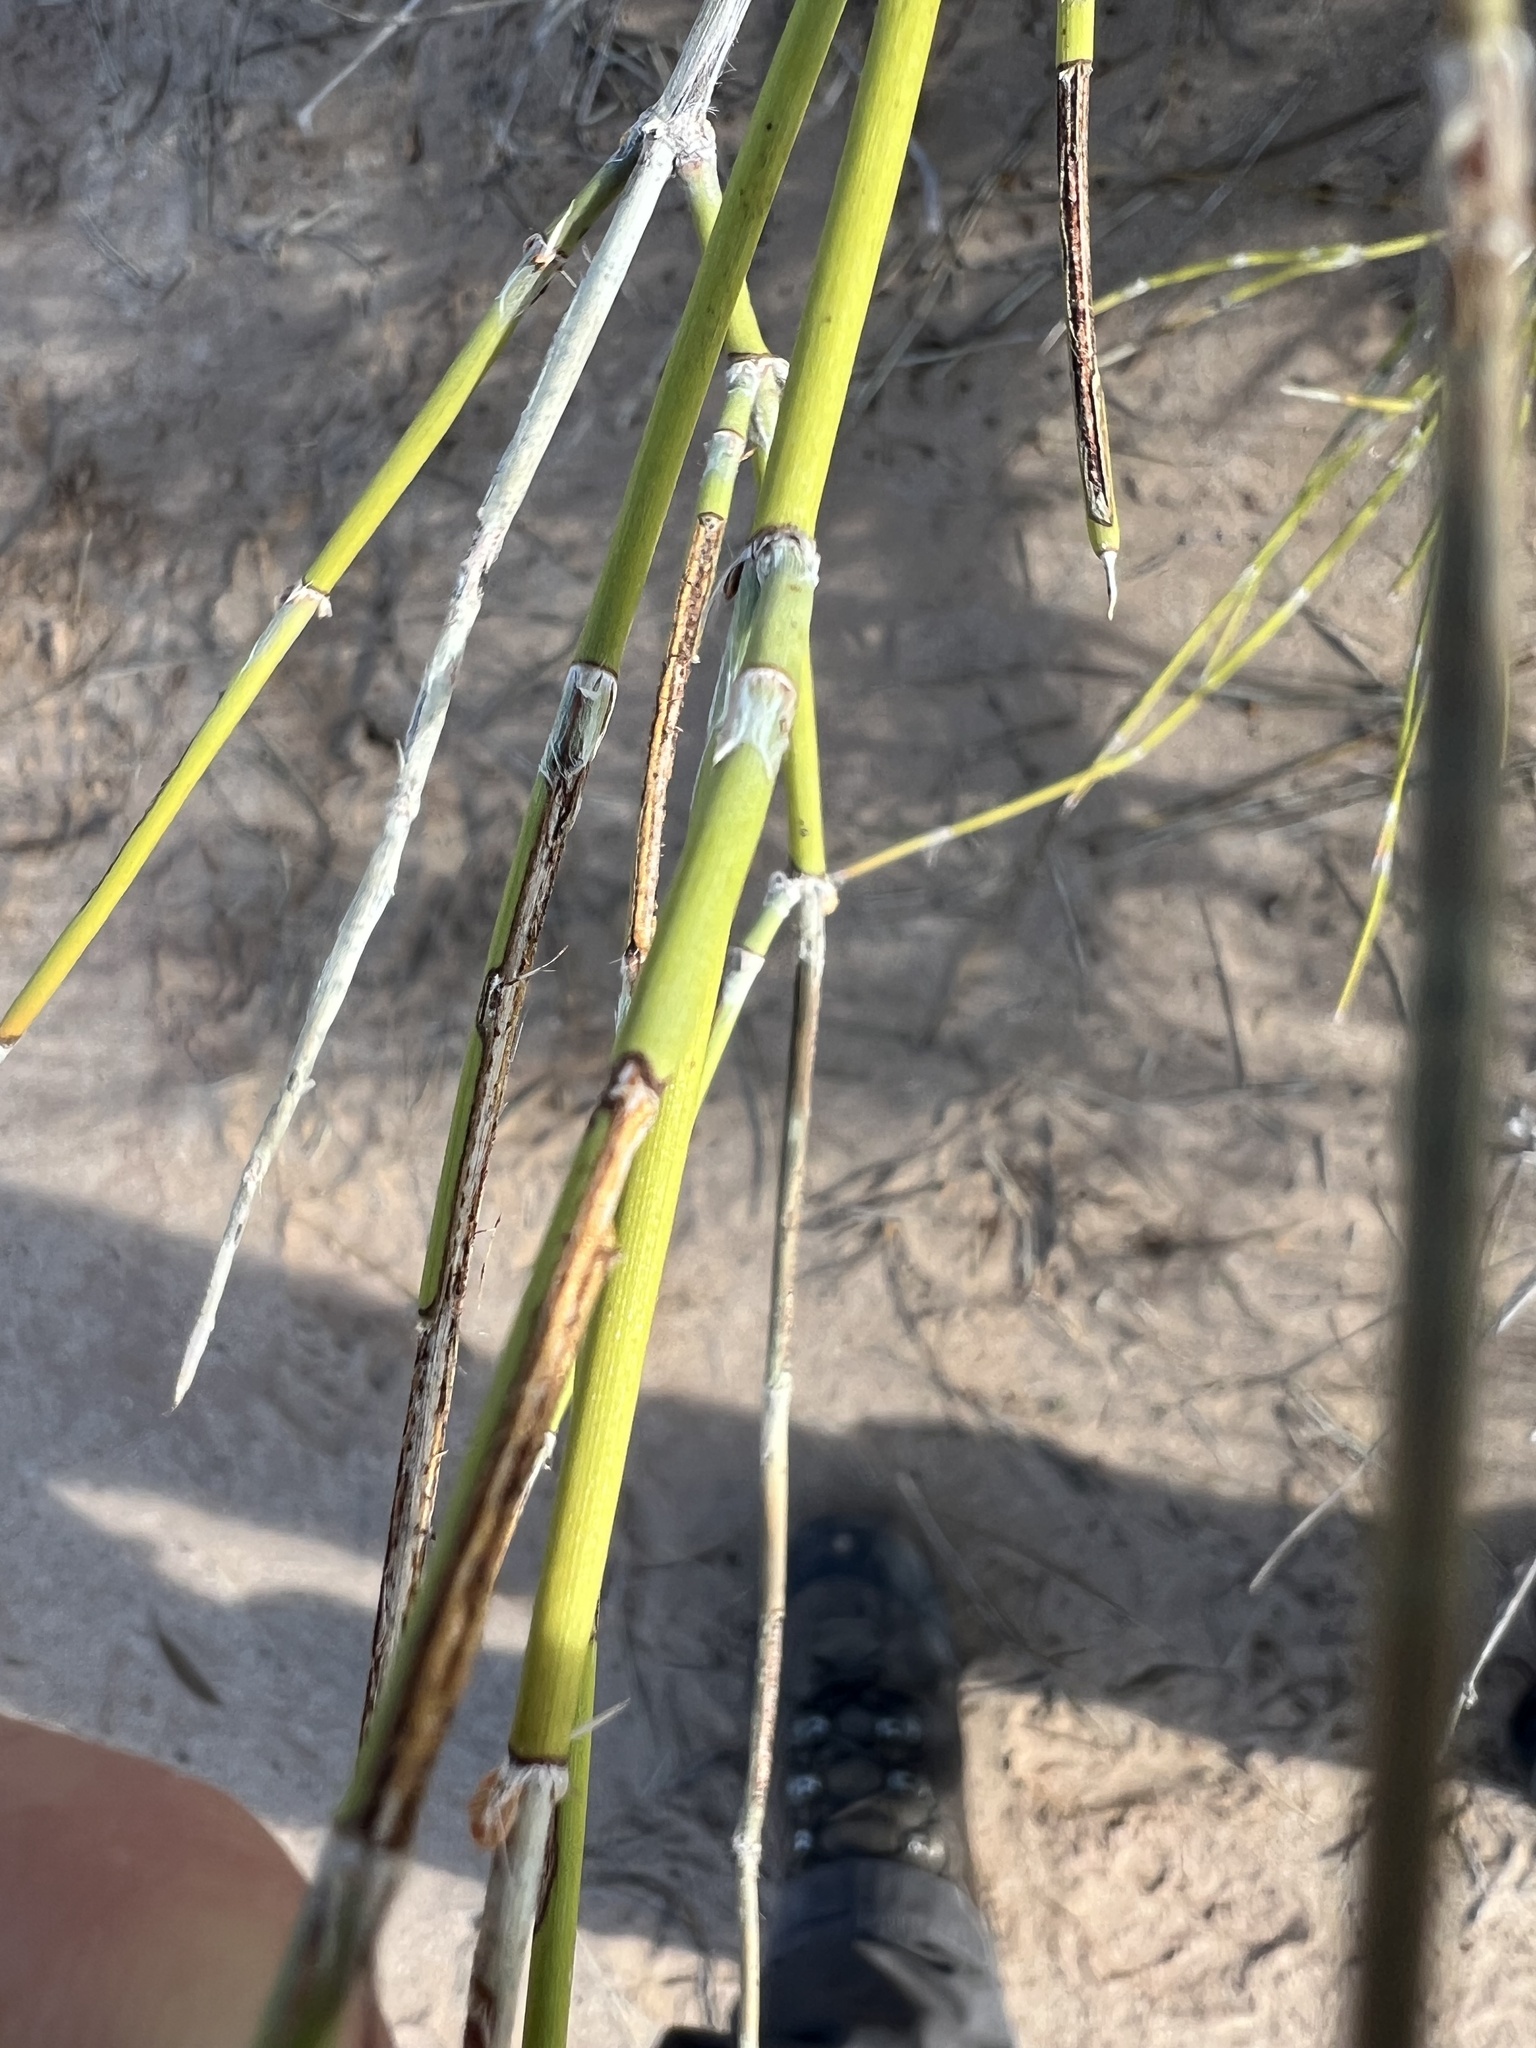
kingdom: Plantae
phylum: Tracheophyta
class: Gnetopsida
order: Ephedrales
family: Ephedraceae
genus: Ephedra
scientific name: Ephedra trifurca
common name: Mexican-tea
